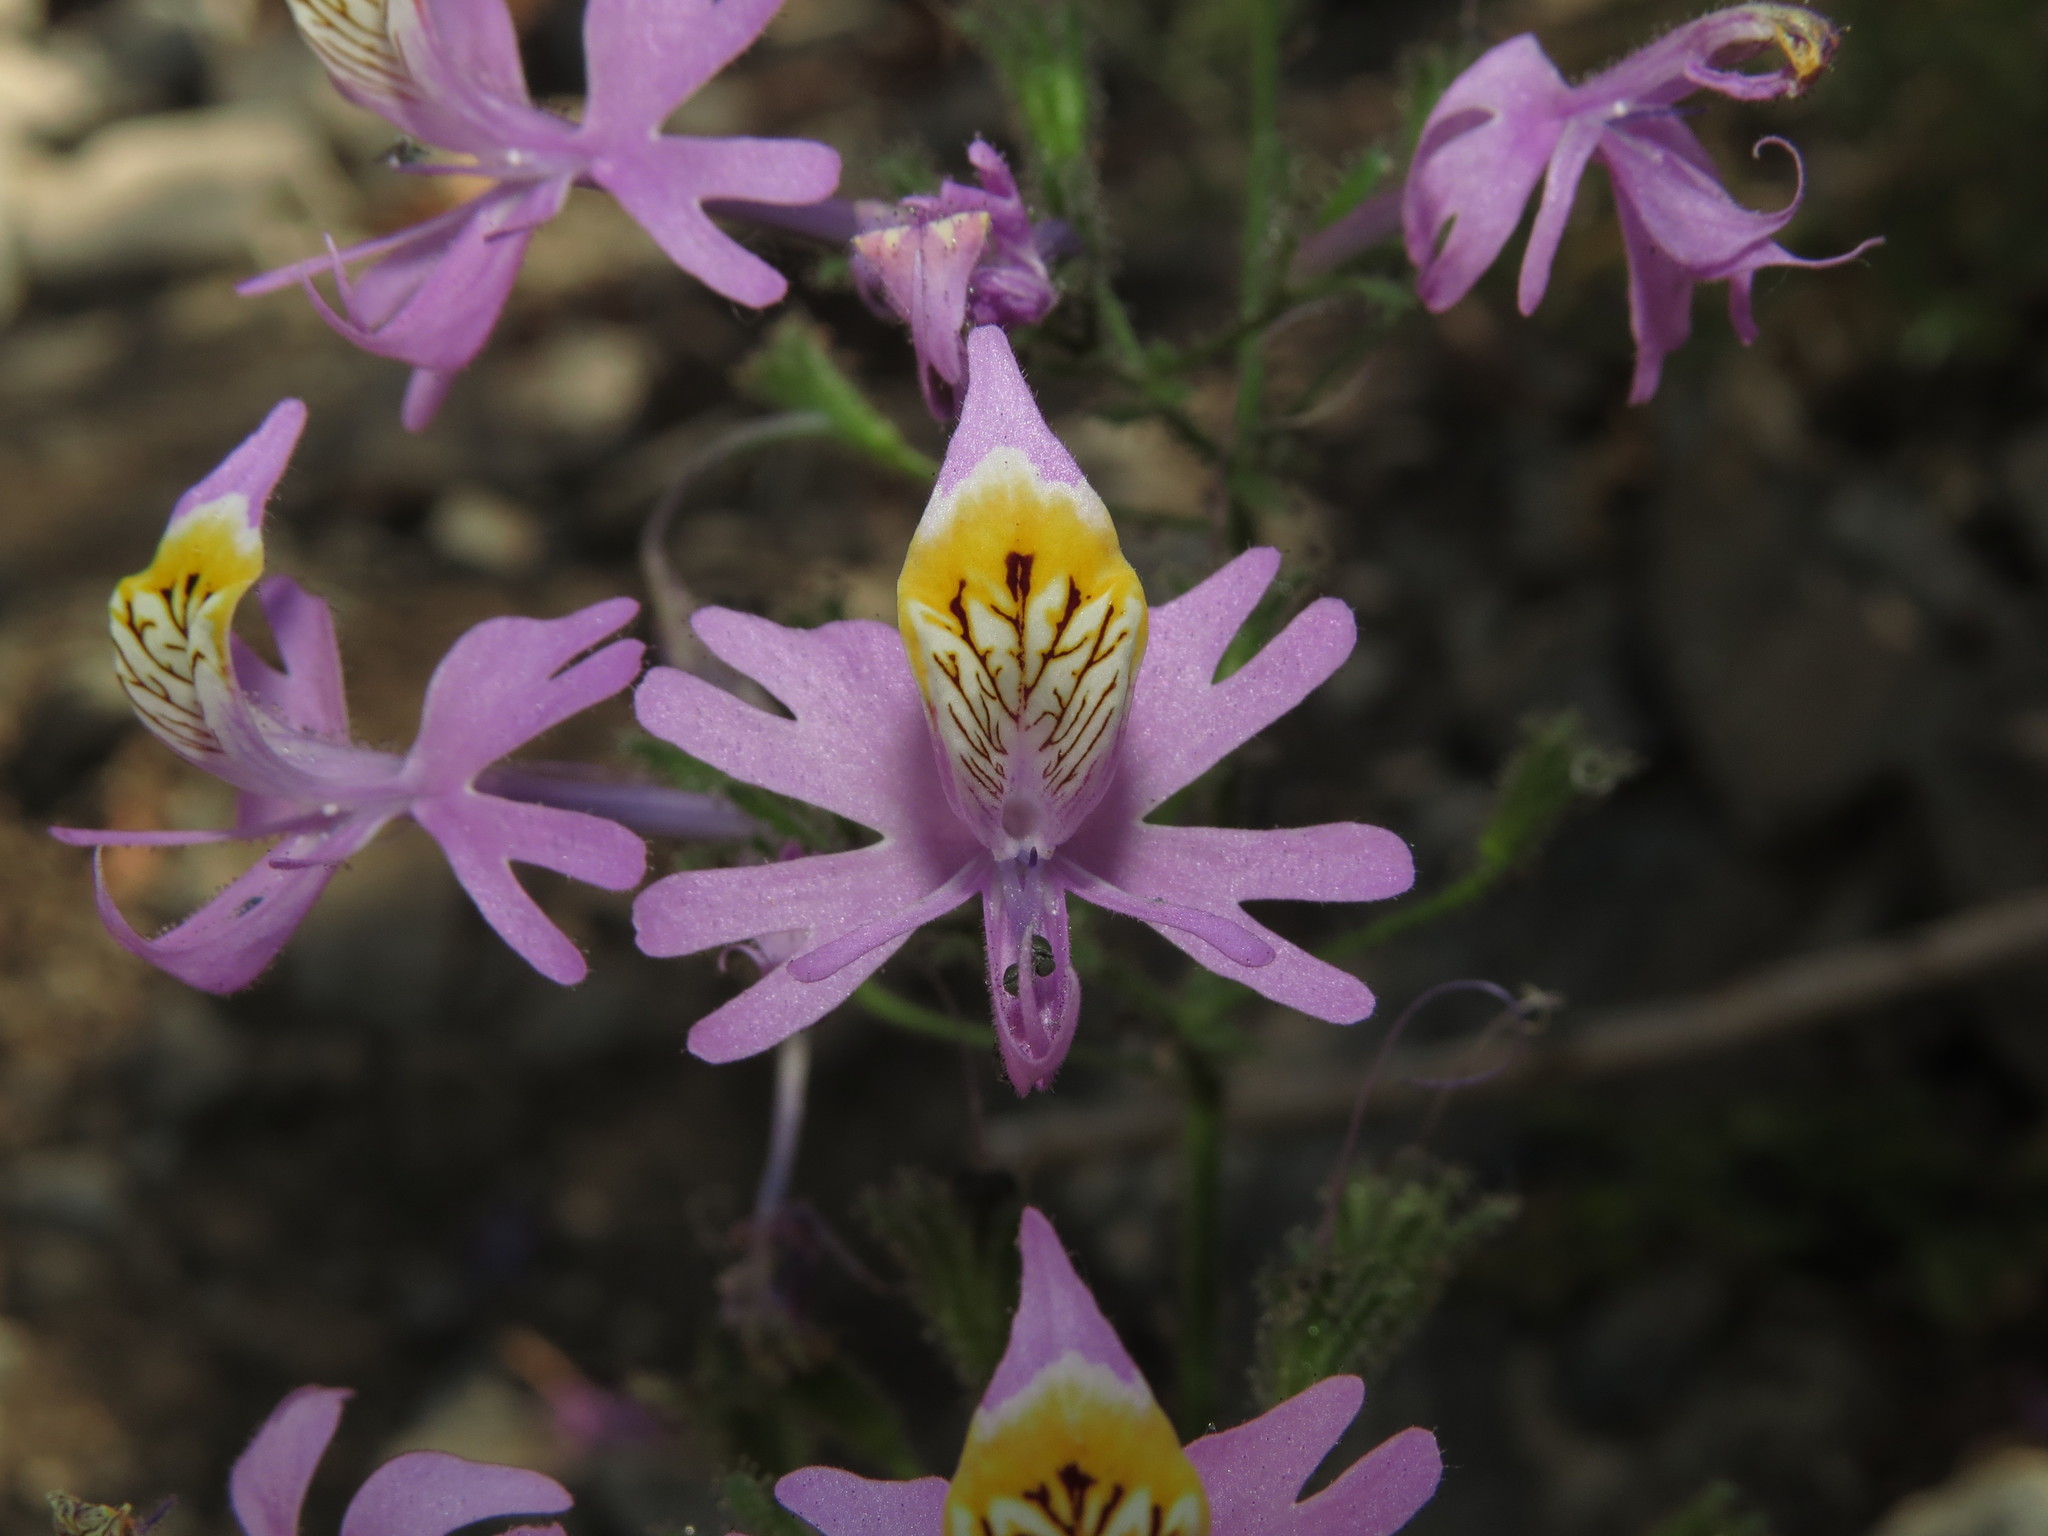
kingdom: Plantae
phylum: Tracheophyta
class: Magnoliopsida
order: Solanales
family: Solanaceae
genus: Schizanthus
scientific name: Schizanthus hookeri
